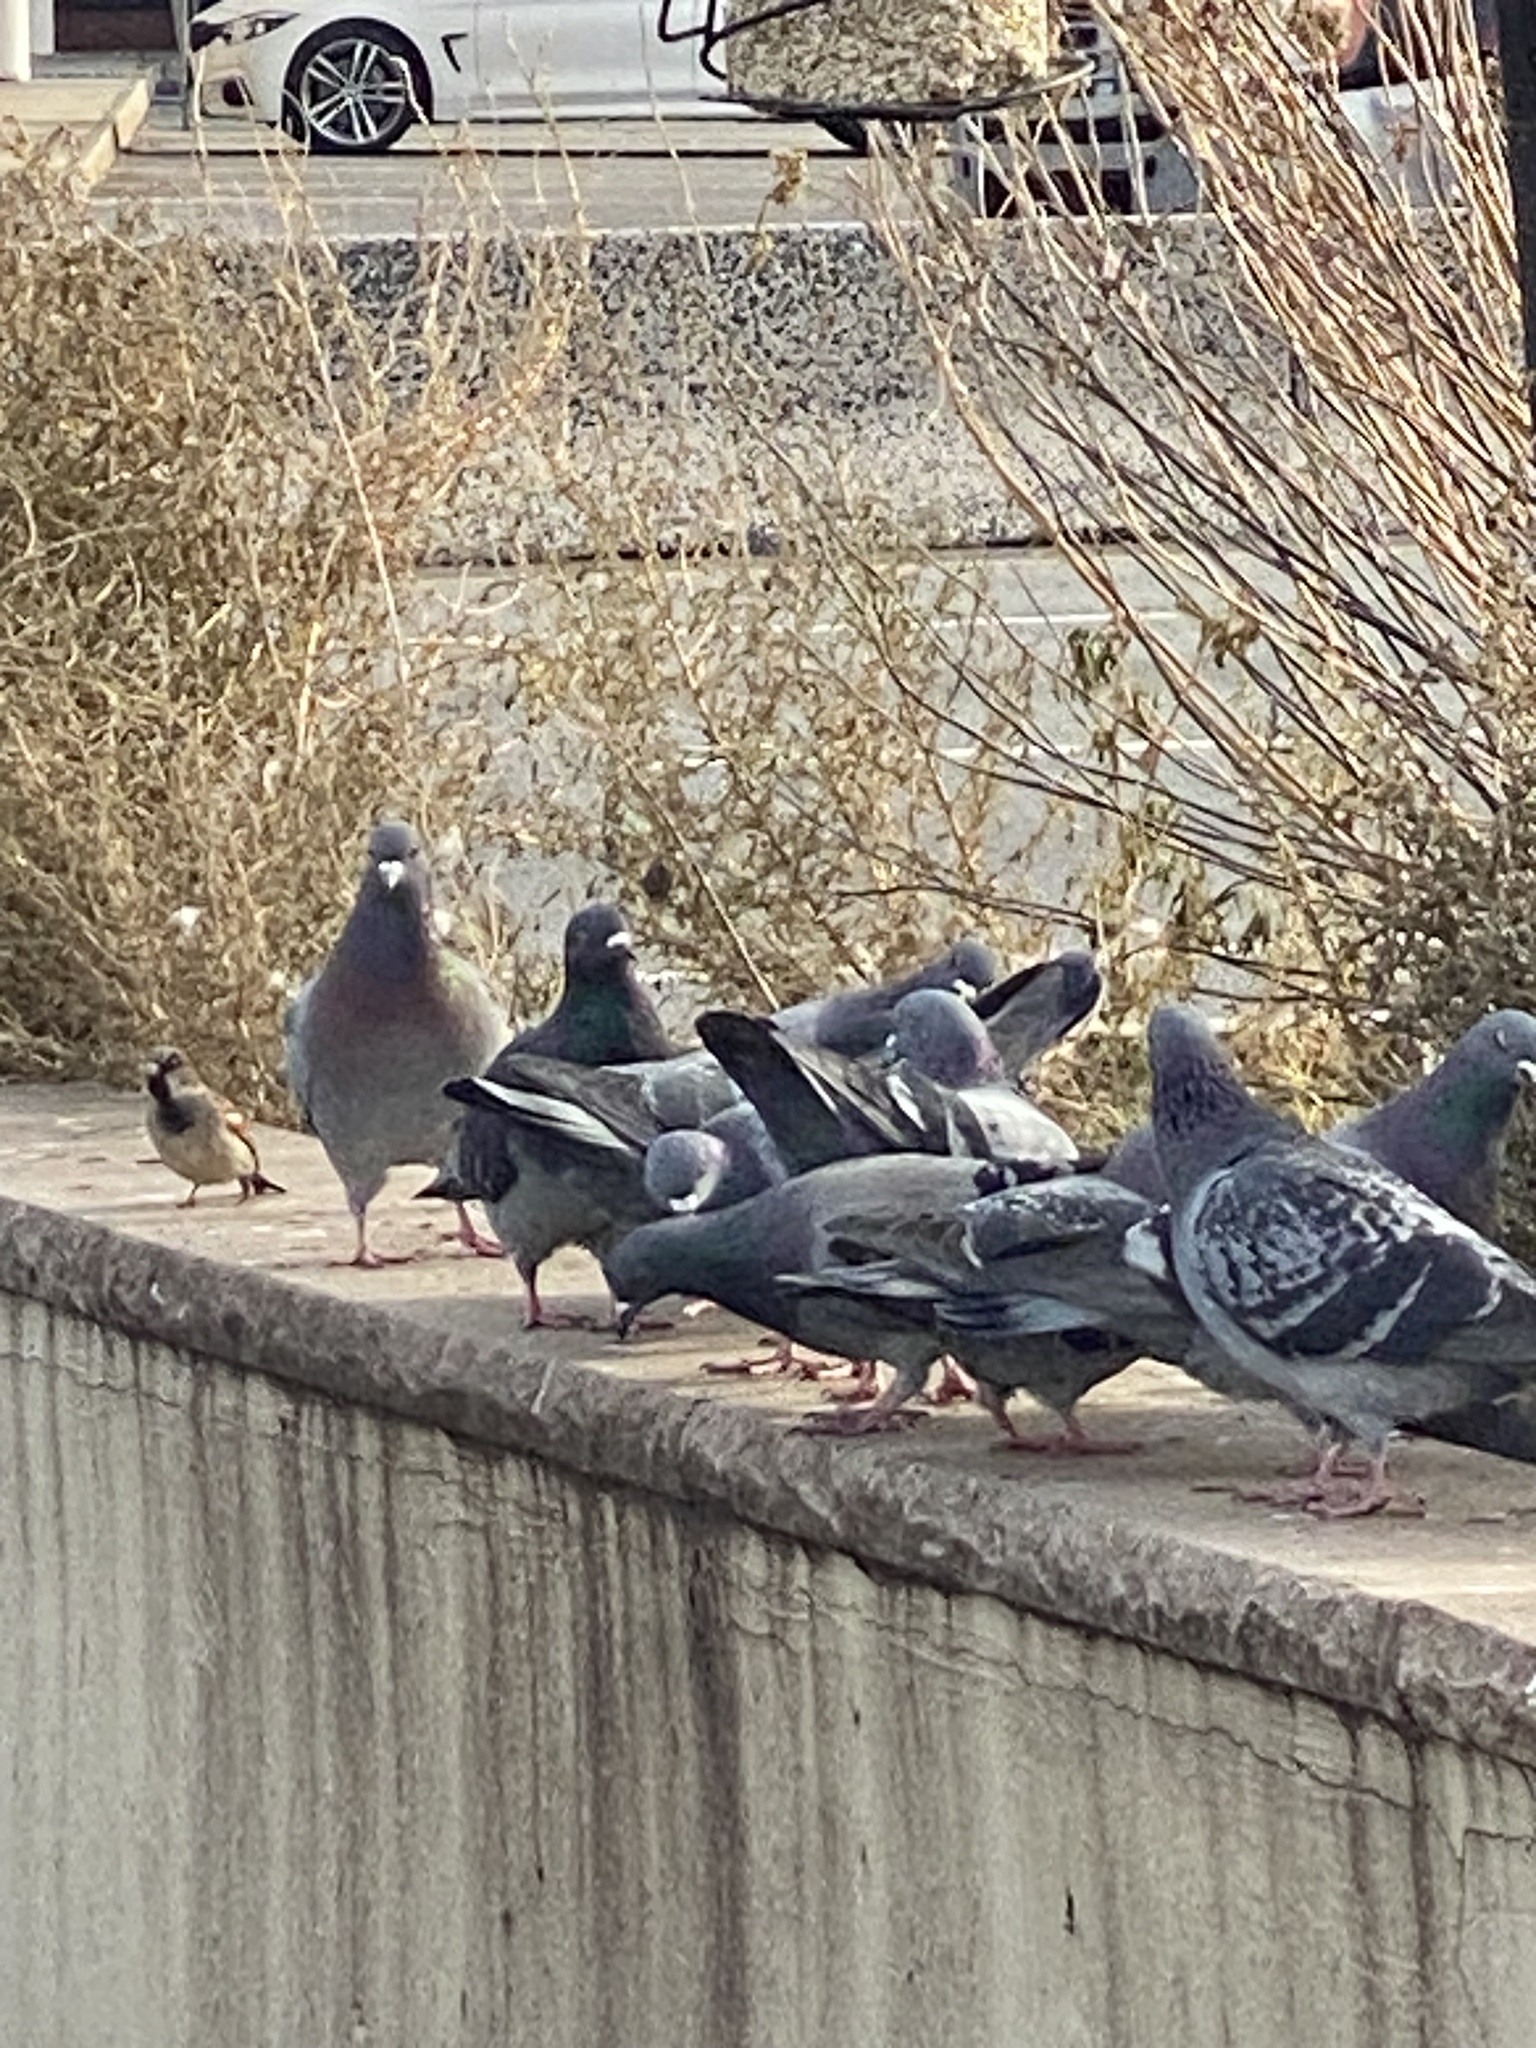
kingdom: Animalia
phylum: Chordata
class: Aves
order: Columbiformes
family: Columbidae
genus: Columba
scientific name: Columba livia
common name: Rock pigeon
